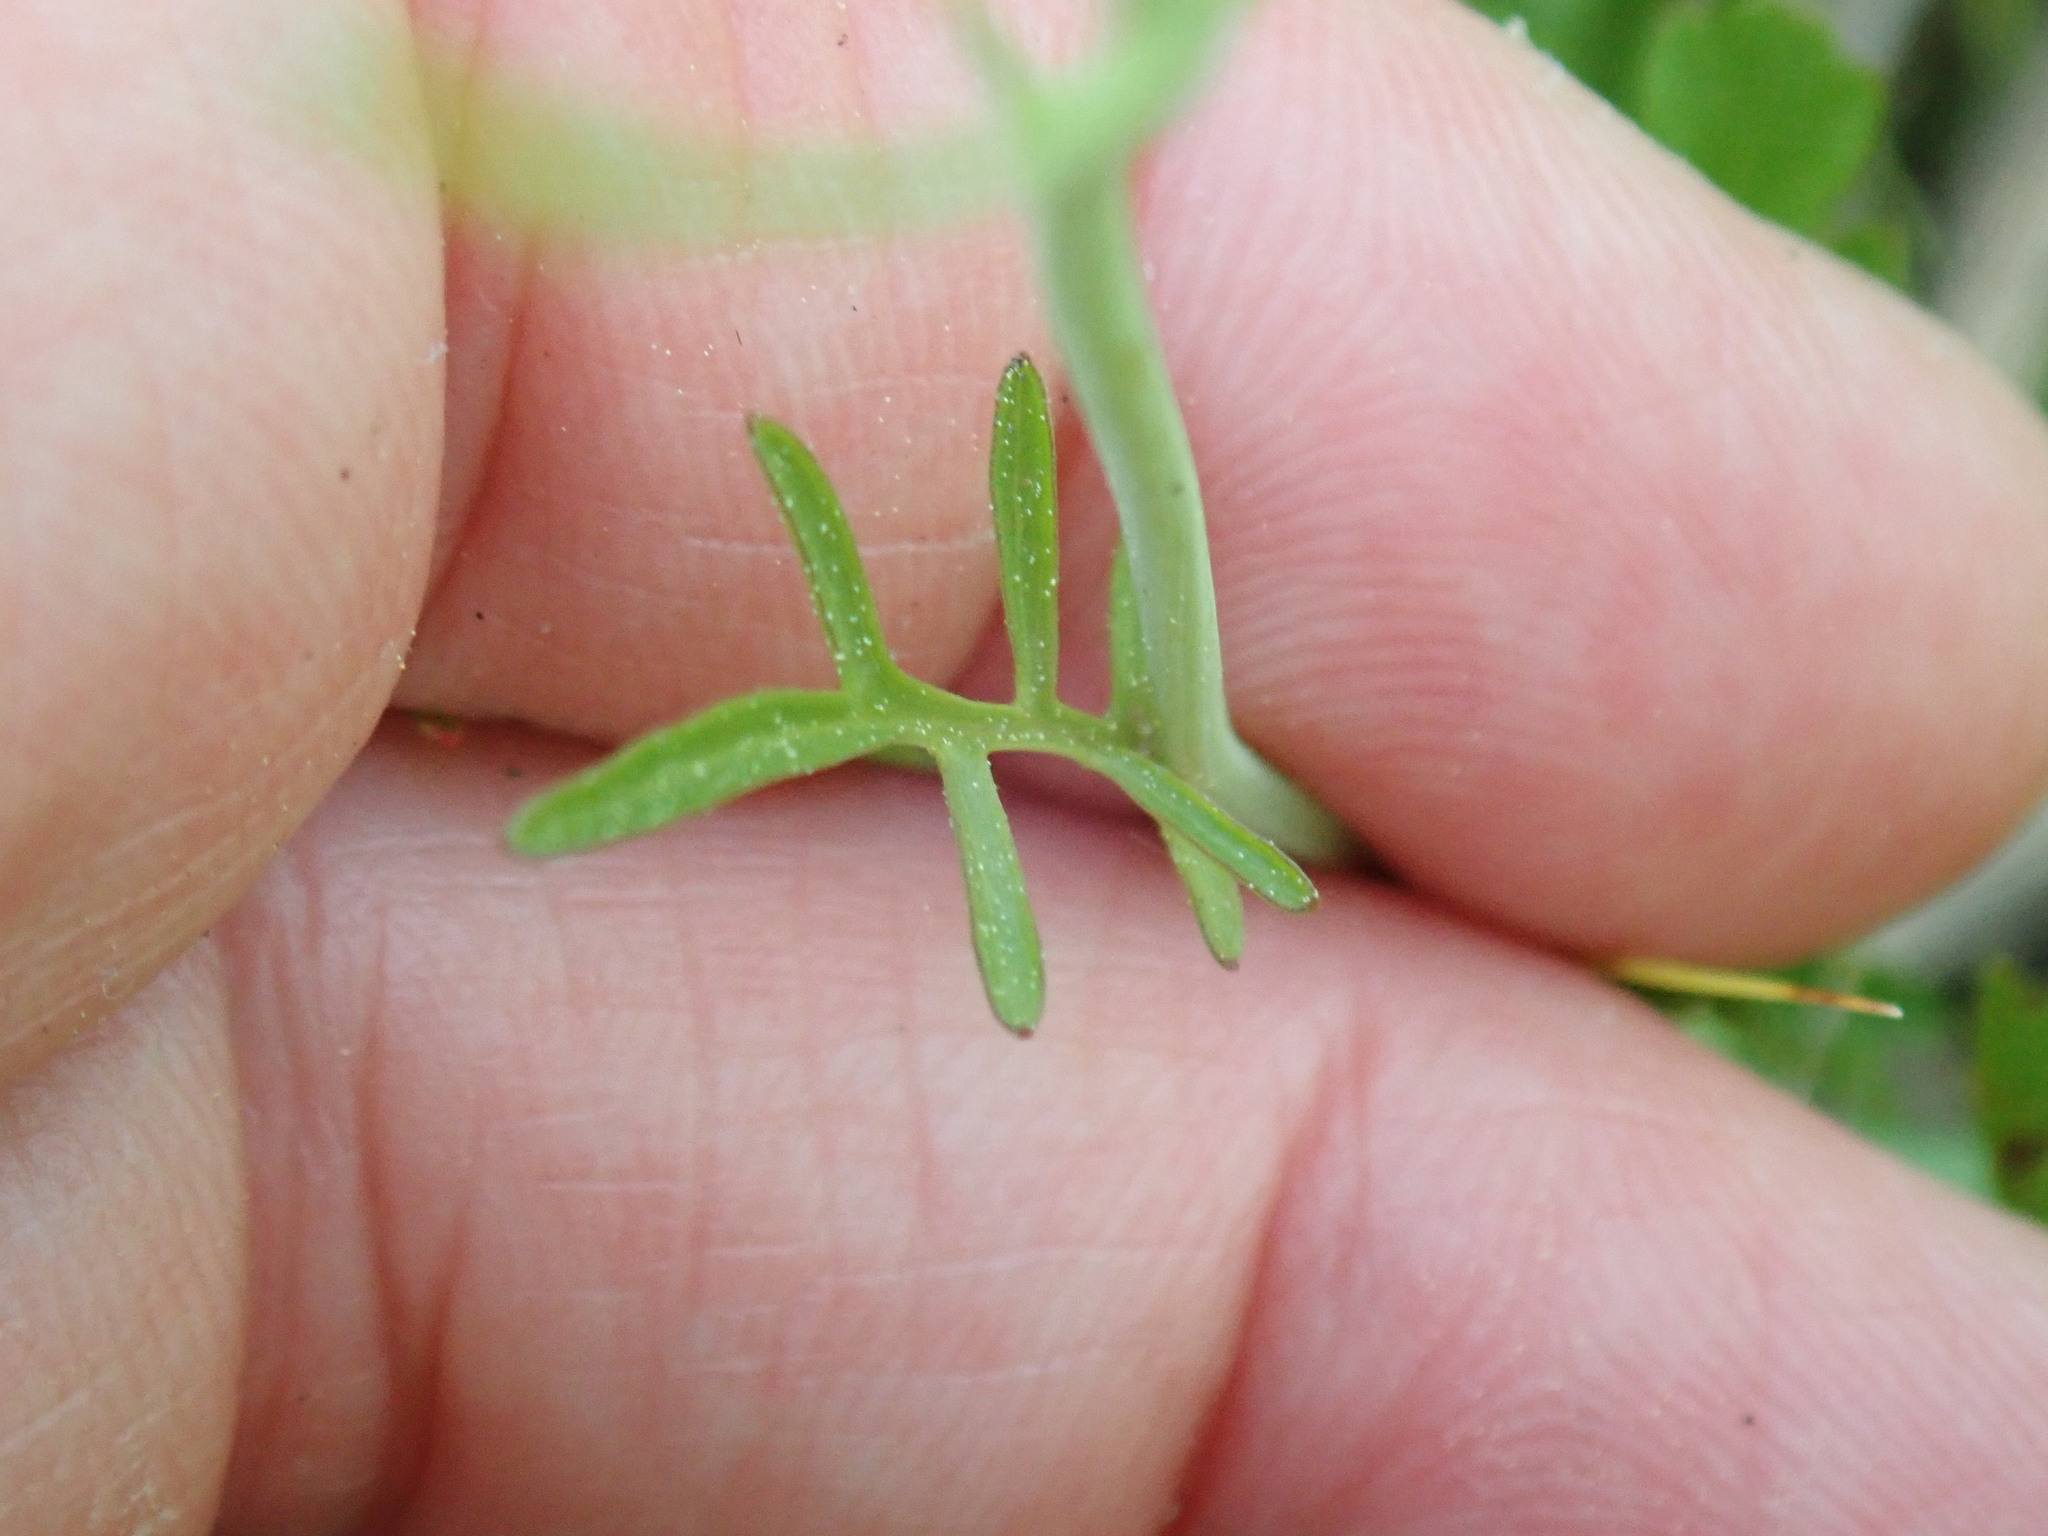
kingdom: Plantae
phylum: Tracheophyta
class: Magnoliopsida
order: Brassicales
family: Brassicaceae
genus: Cardamine
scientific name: Cardamine pratensis
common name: Cuckoo flower
